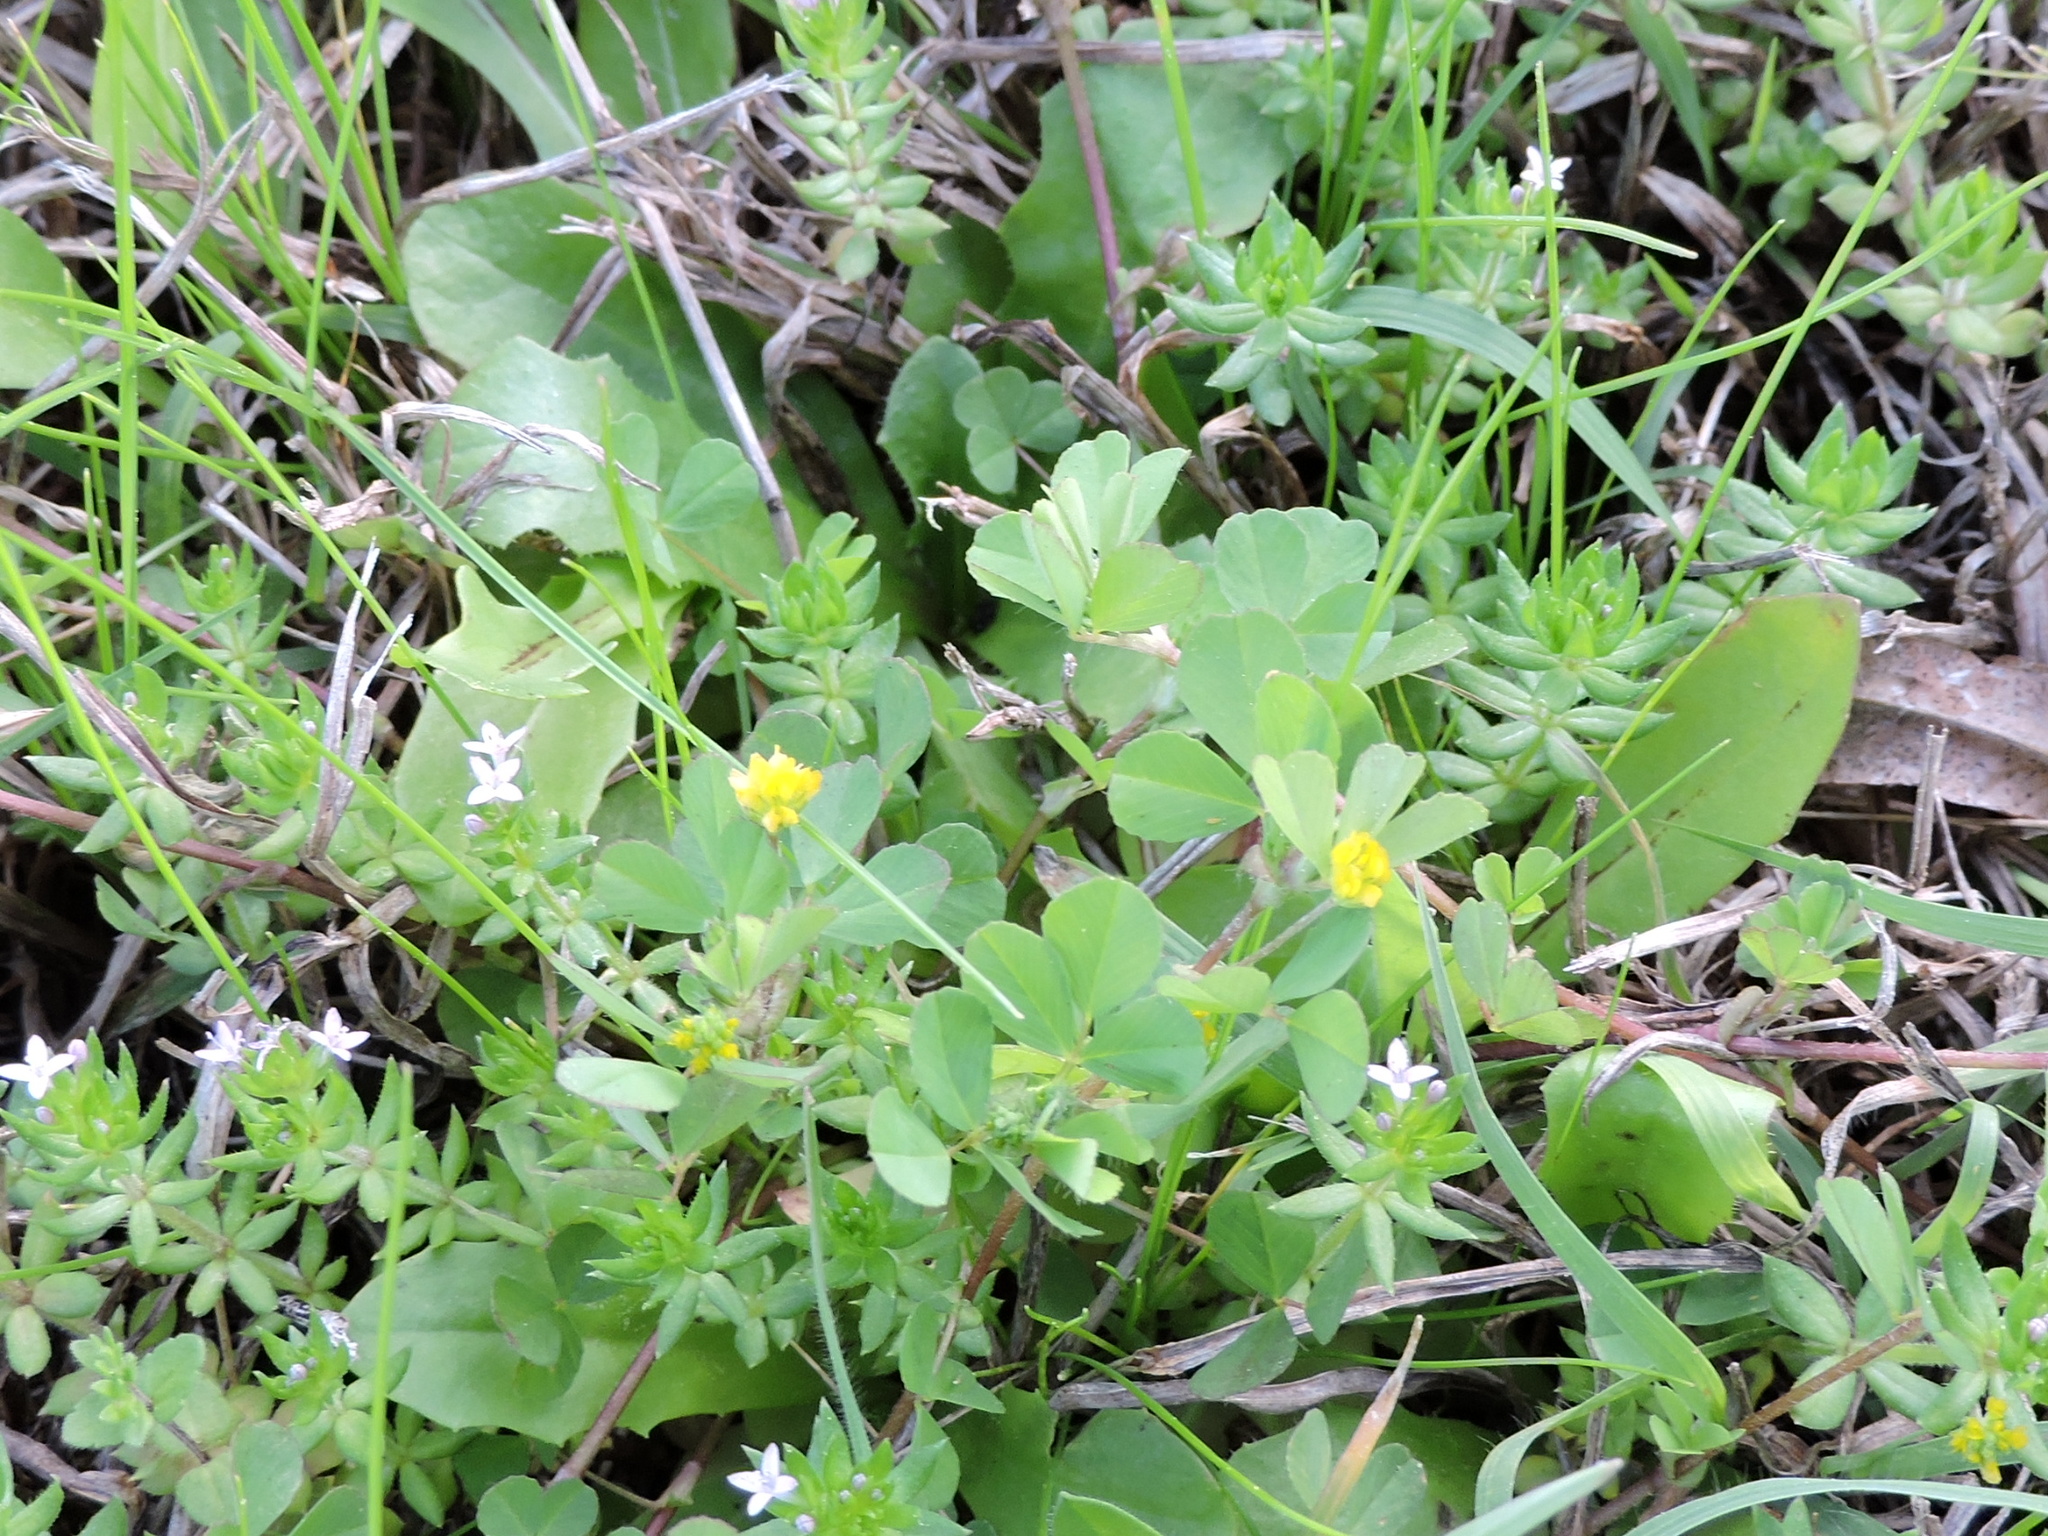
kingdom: Plantae
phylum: Tracheophyta
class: Magnoliopsida
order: Fabales
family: Fabaceae
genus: Trifolium
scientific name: Trifolium dubium
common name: Suckling clover
